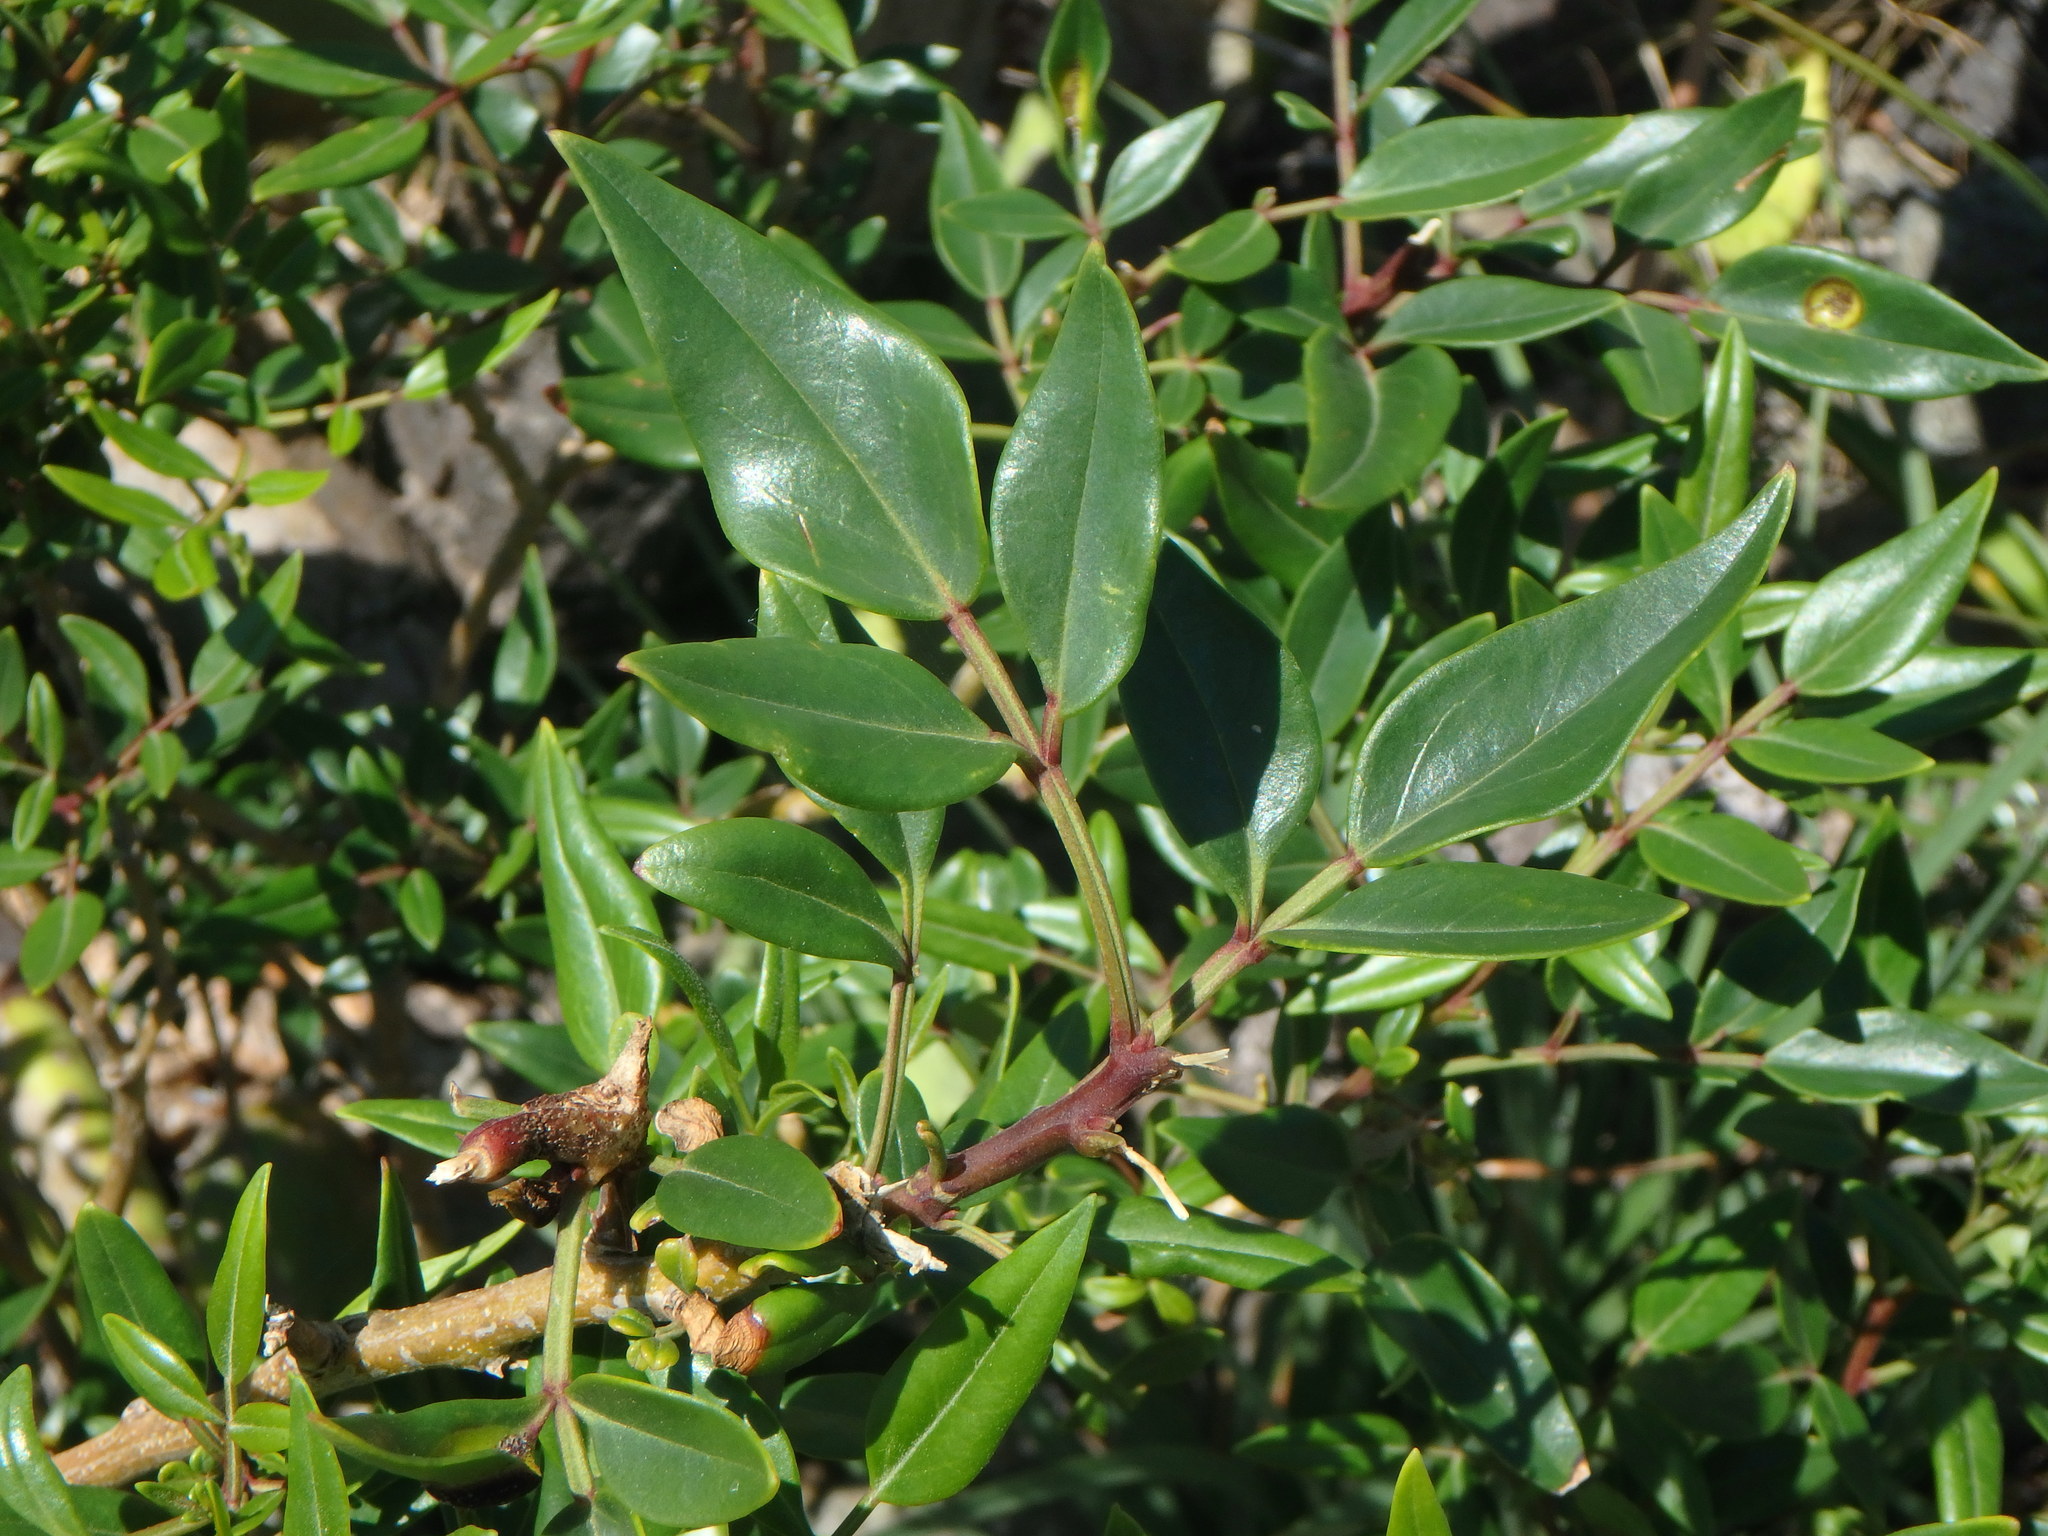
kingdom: Plantae
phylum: Tracheophyta
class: Magnoliopsida
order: Lamiales
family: Oleaceae
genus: Chrysojasminum
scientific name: Chrysojasminum odoratissimum
